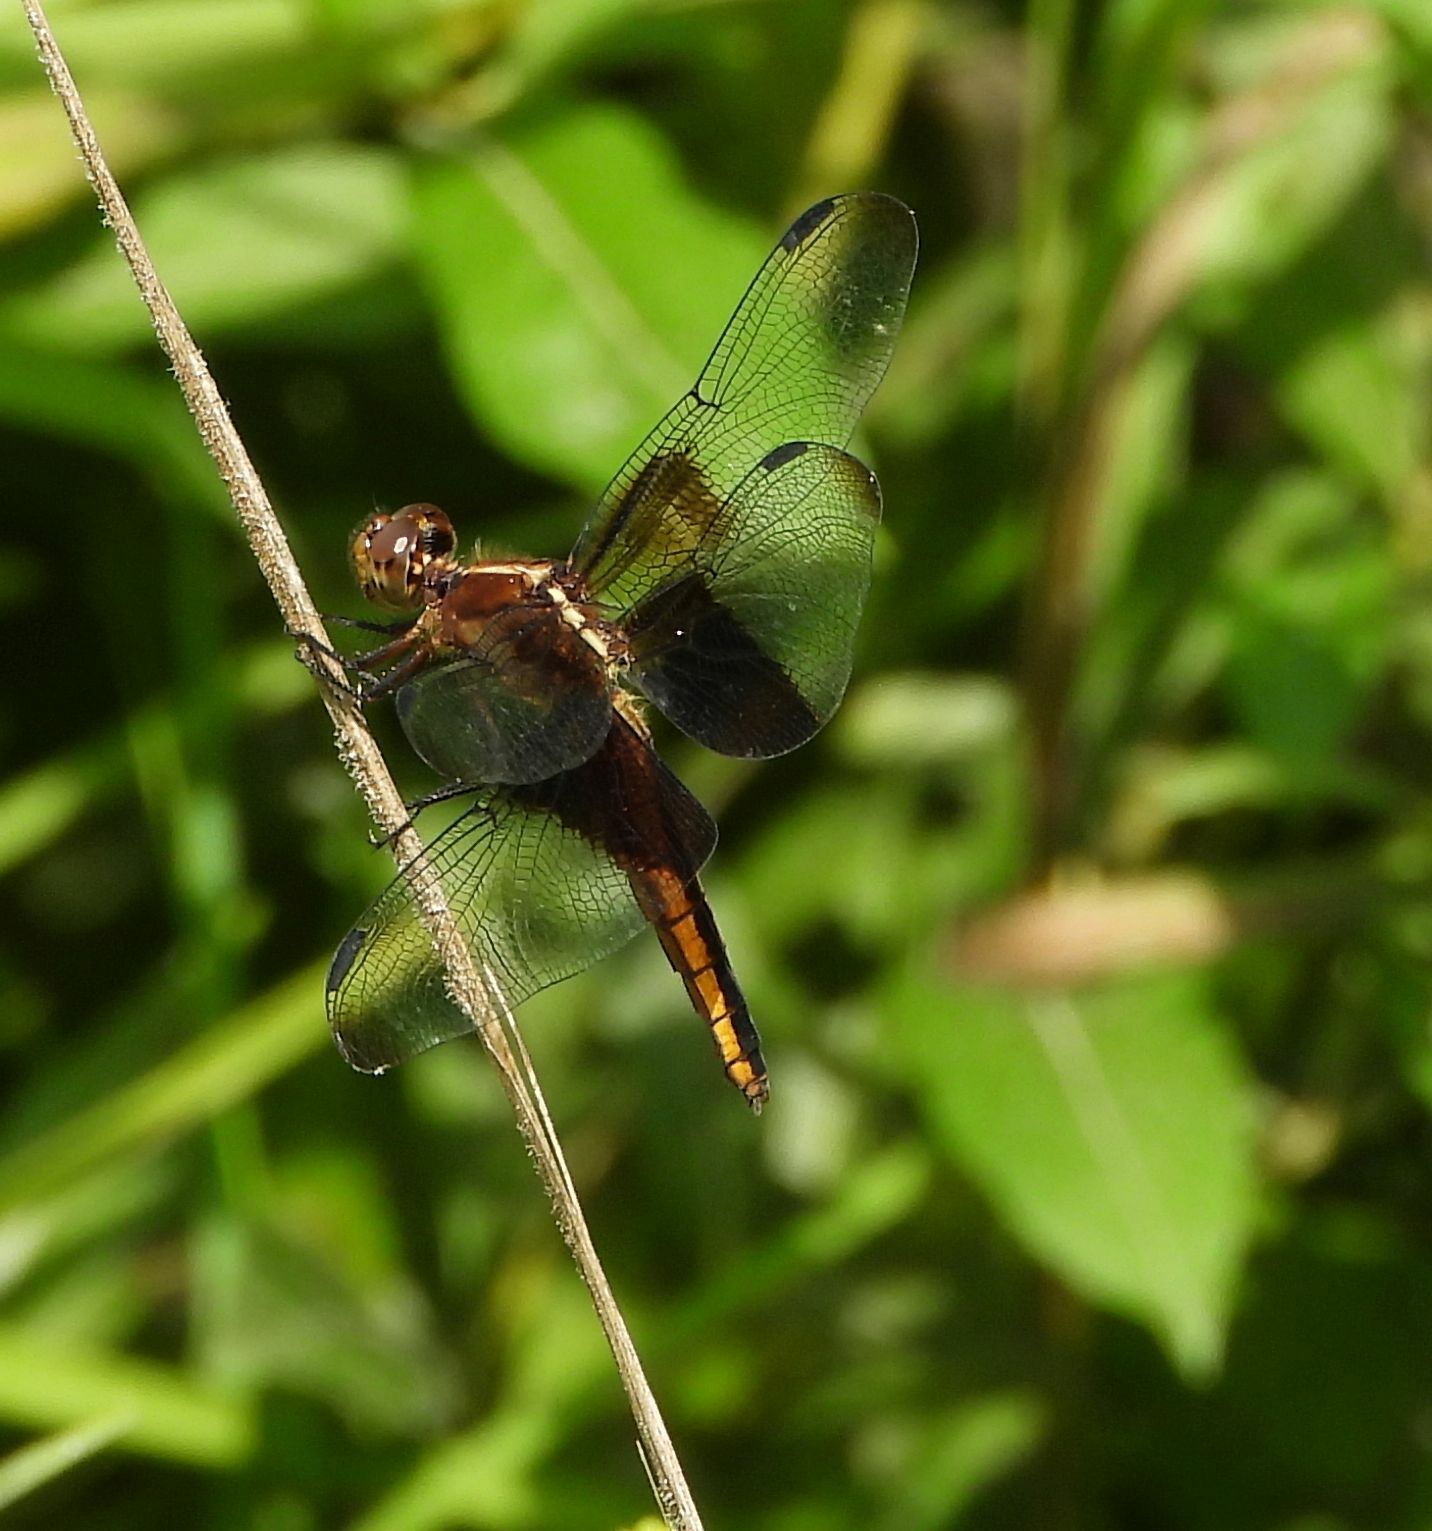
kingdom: Animalia
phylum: Arthropoda
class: Insecta
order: Odonata
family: Libellulidae
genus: Libellula
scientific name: Libellula luctuosa
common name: Widow skimmer
